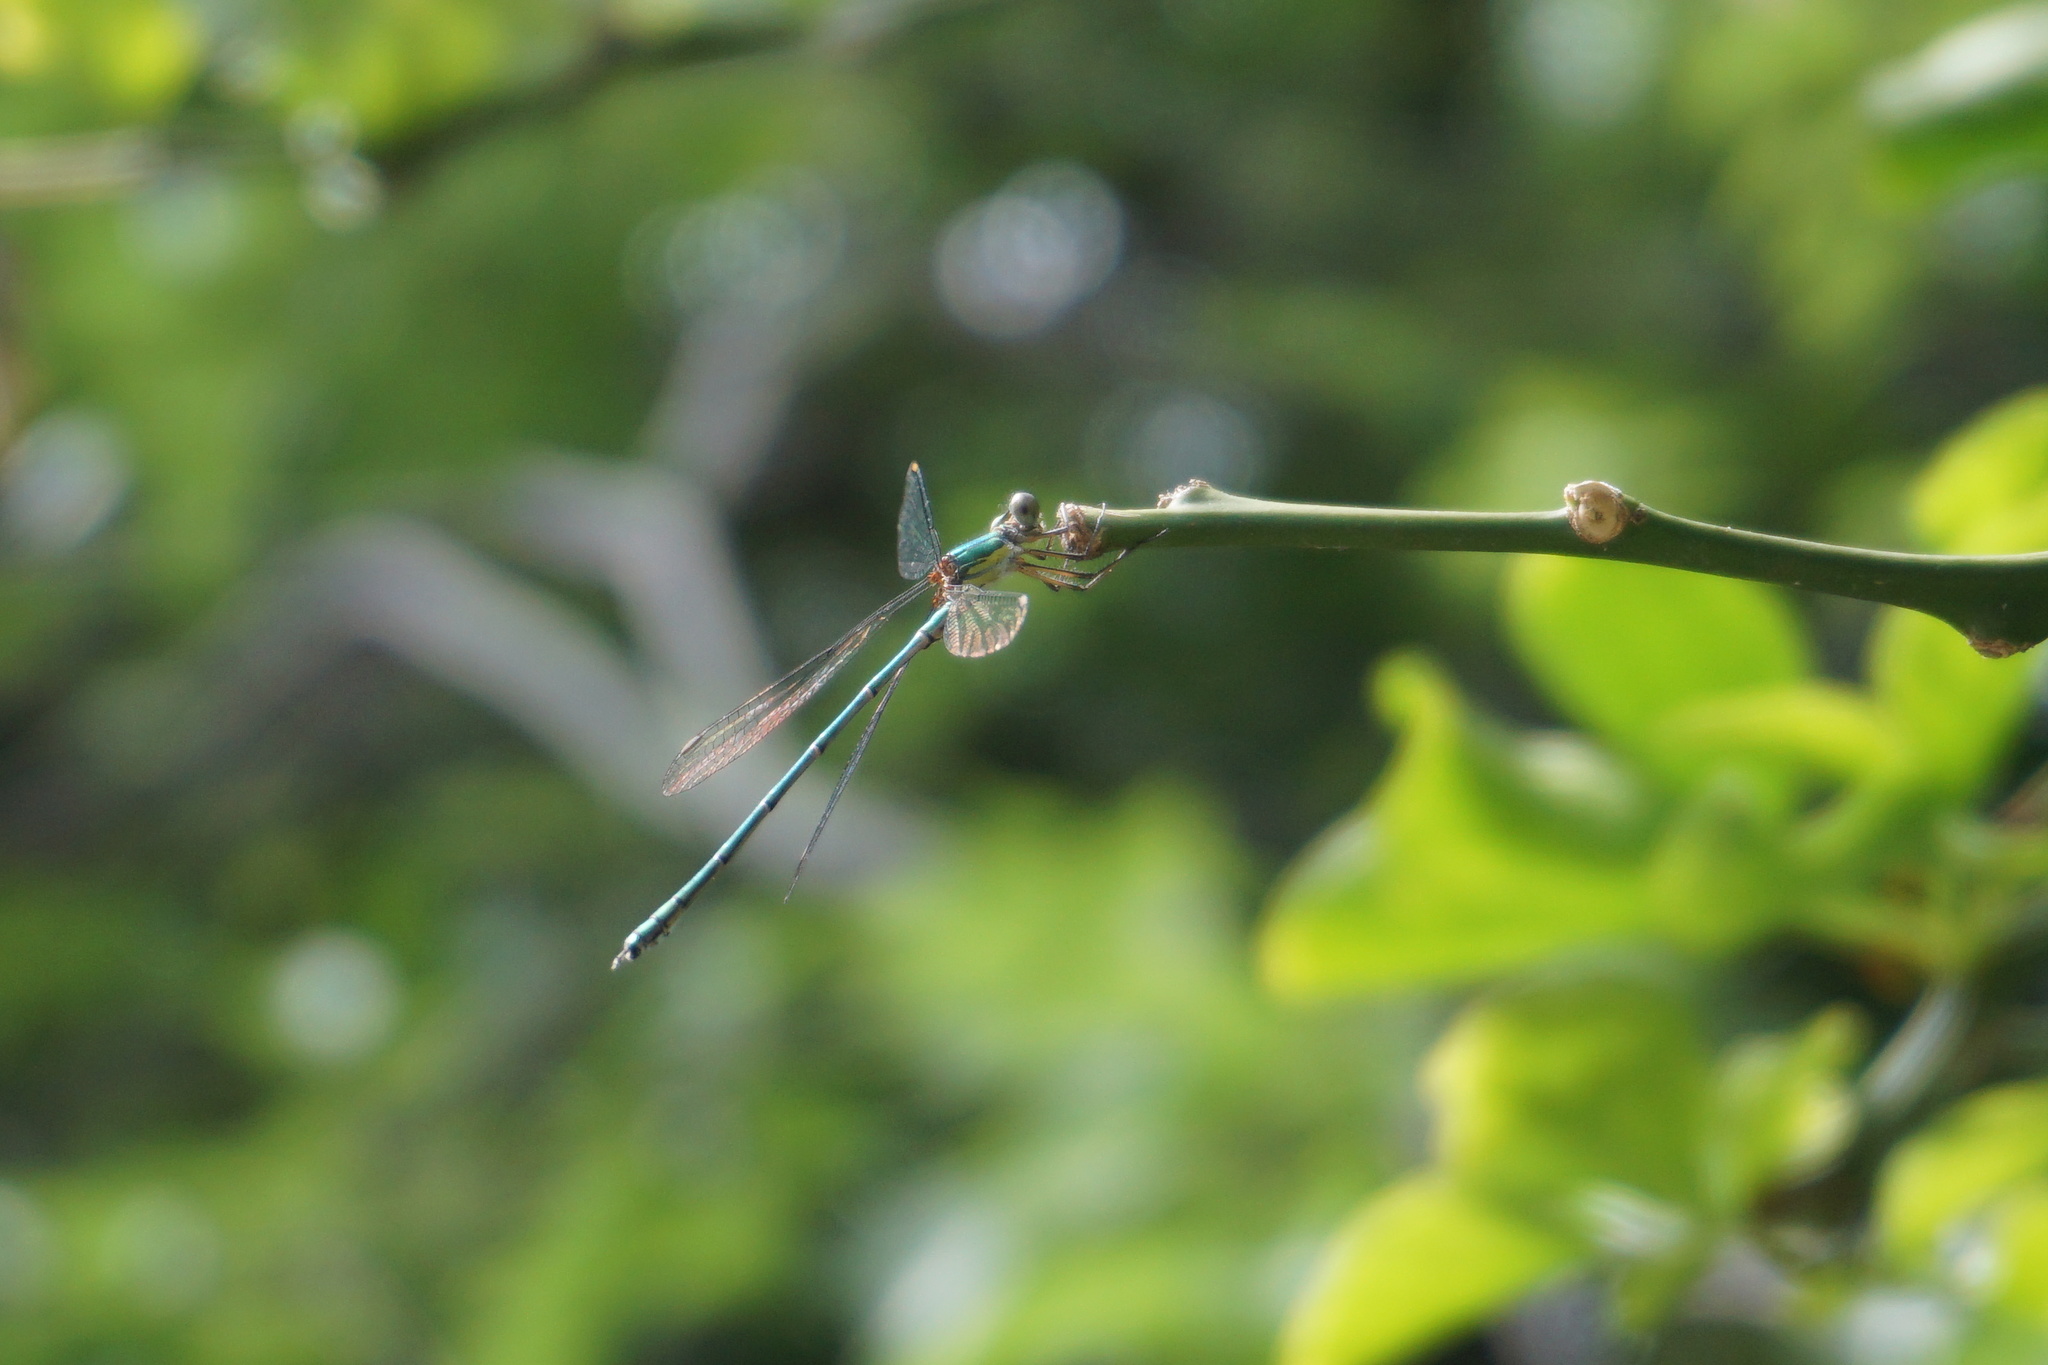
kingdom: Animalia
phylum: Arthropoda
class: Insecta
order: Odonata
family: Lestidae
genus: Chalcolestes
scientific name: Chalcolestes viridis
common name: Green emerald damselfly
